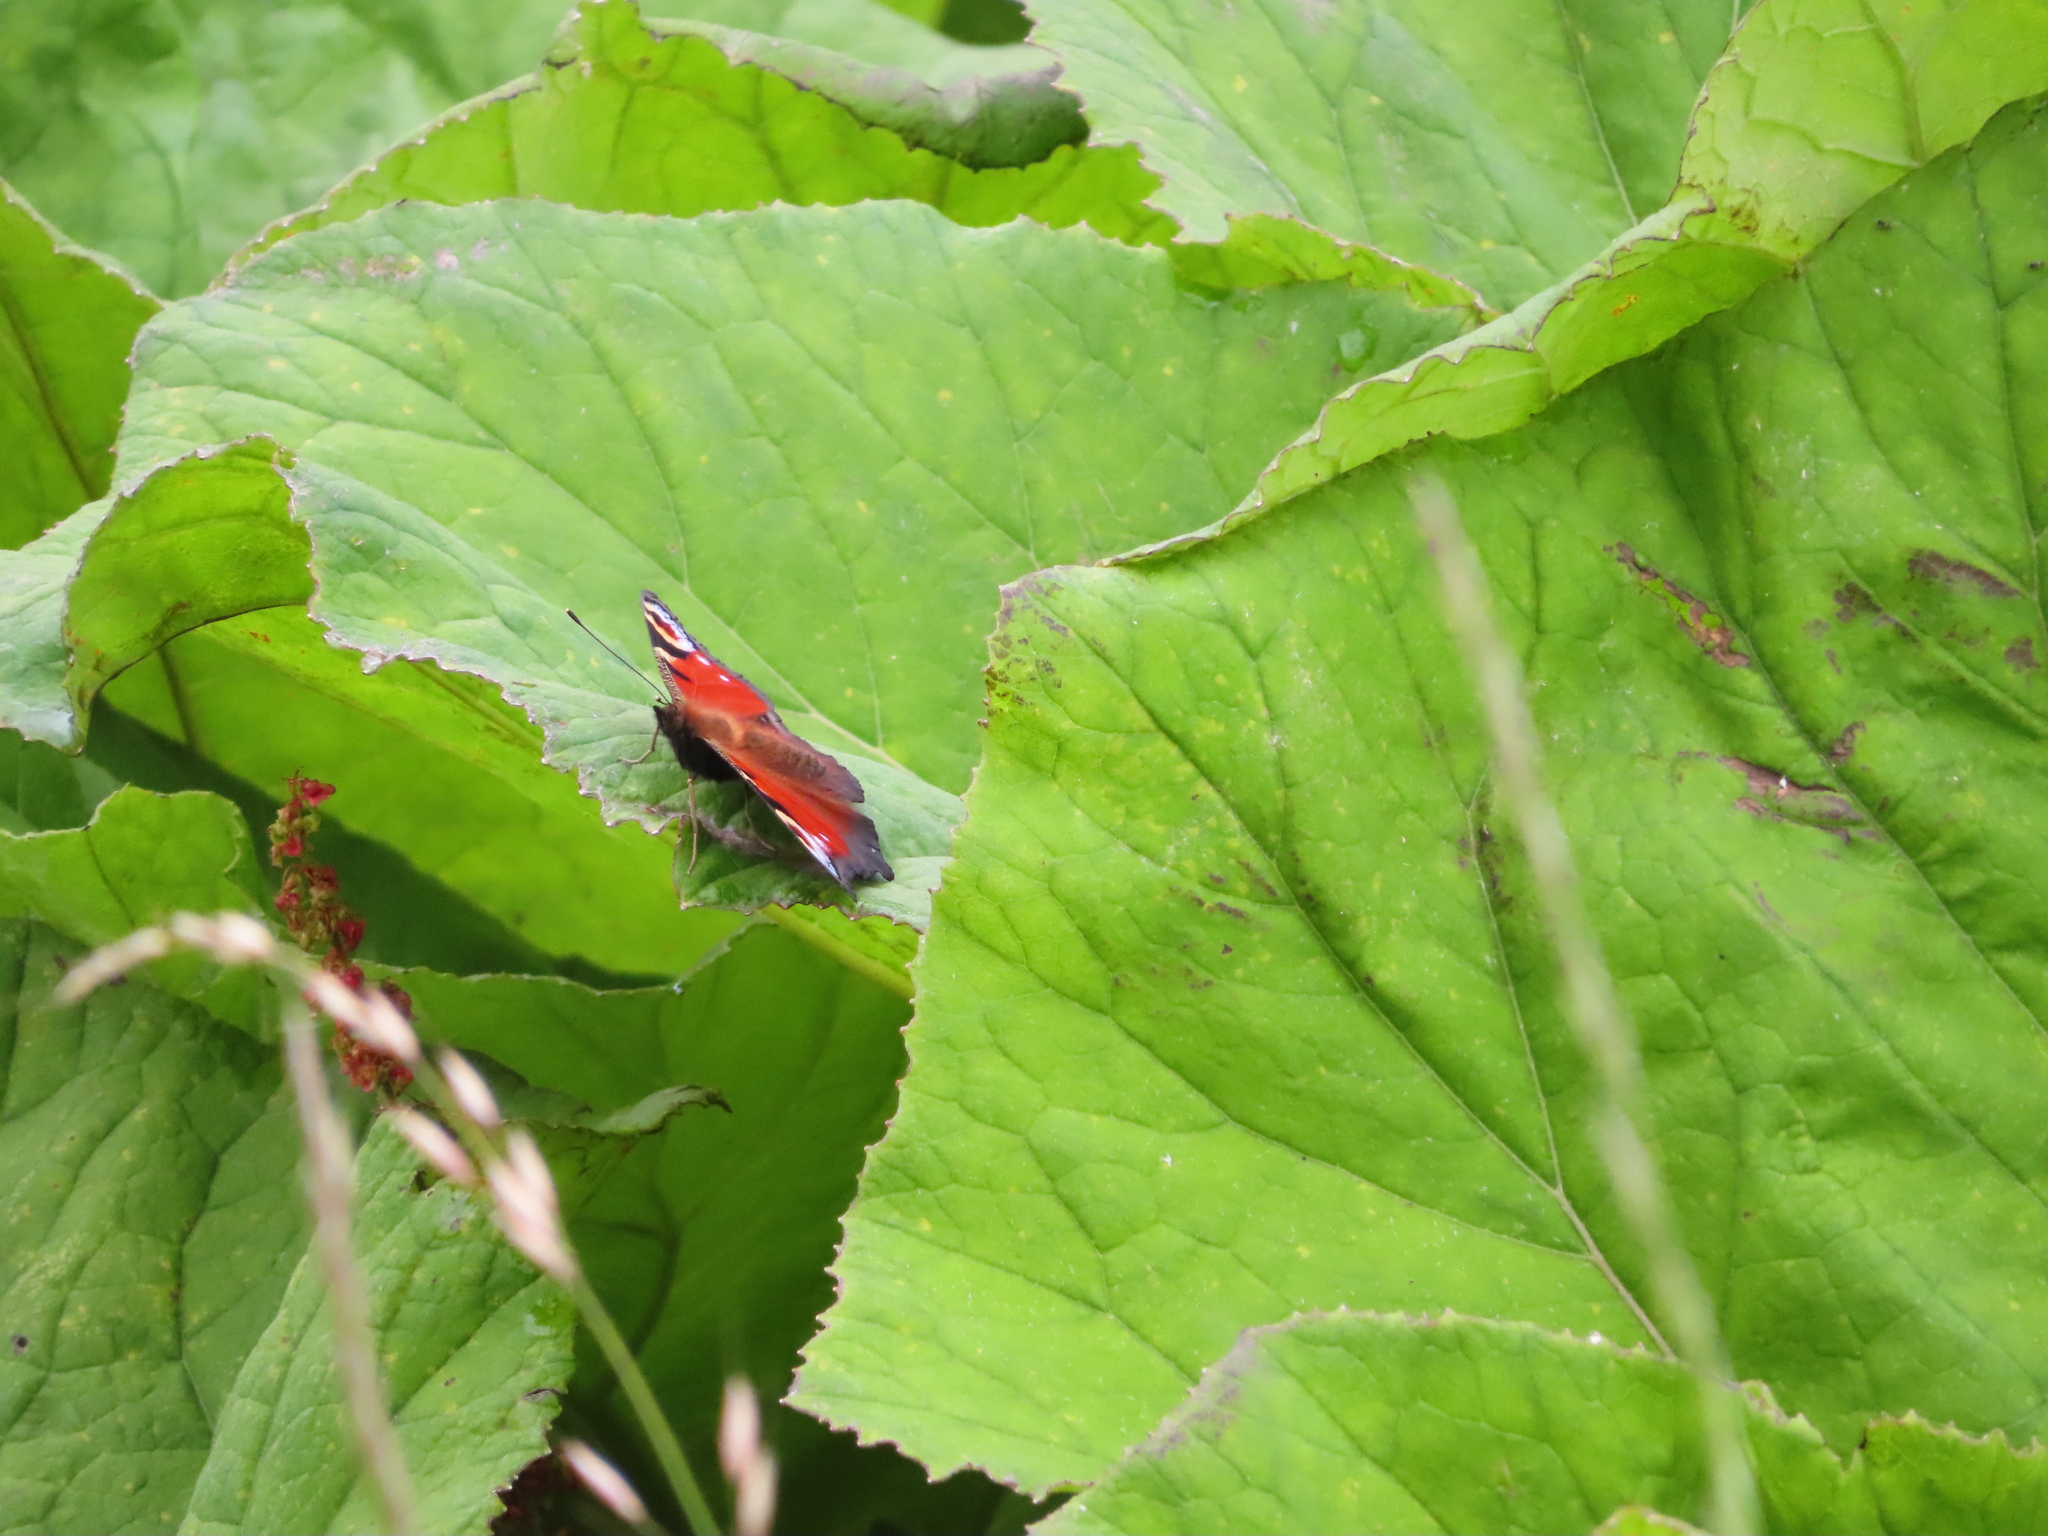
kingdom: Animalia
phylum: Arthropoda
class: Insecta
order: Lepidoptera
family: Nymphalidae
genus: Aglais
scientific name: Aglais io
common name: Peacock
